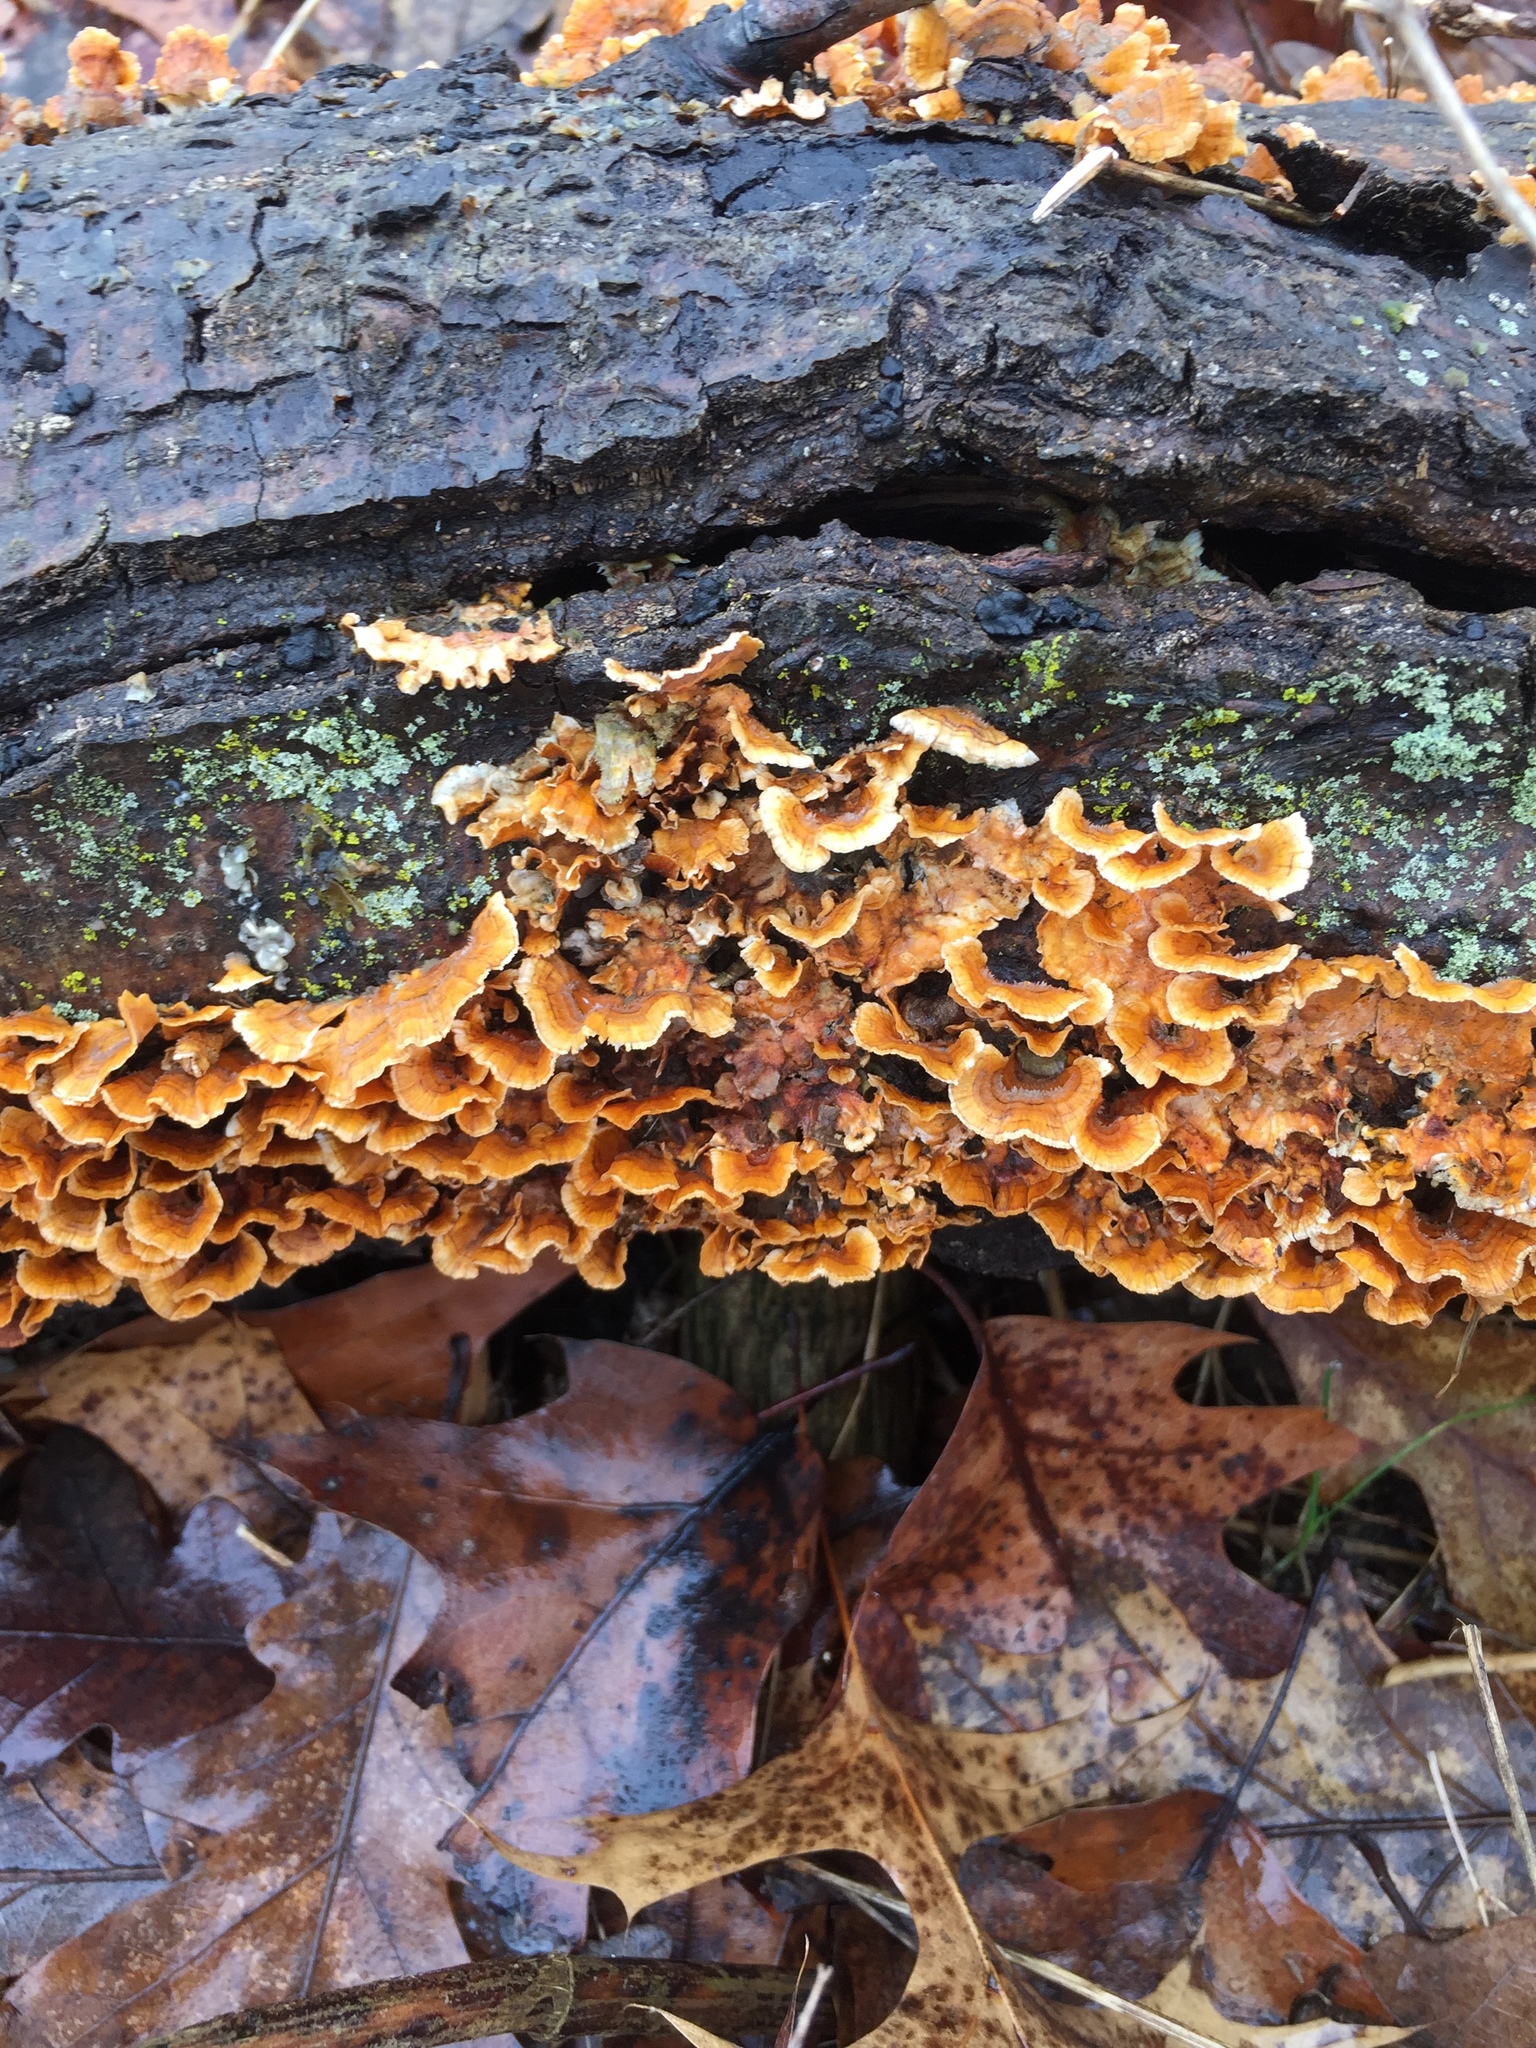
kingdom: Fungi
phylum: Basidiomycota
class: Agaricomycetes
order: Russulales
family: Stereaceae
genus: Stereum
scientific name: Stereum complicatum
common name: Crowded parchment
